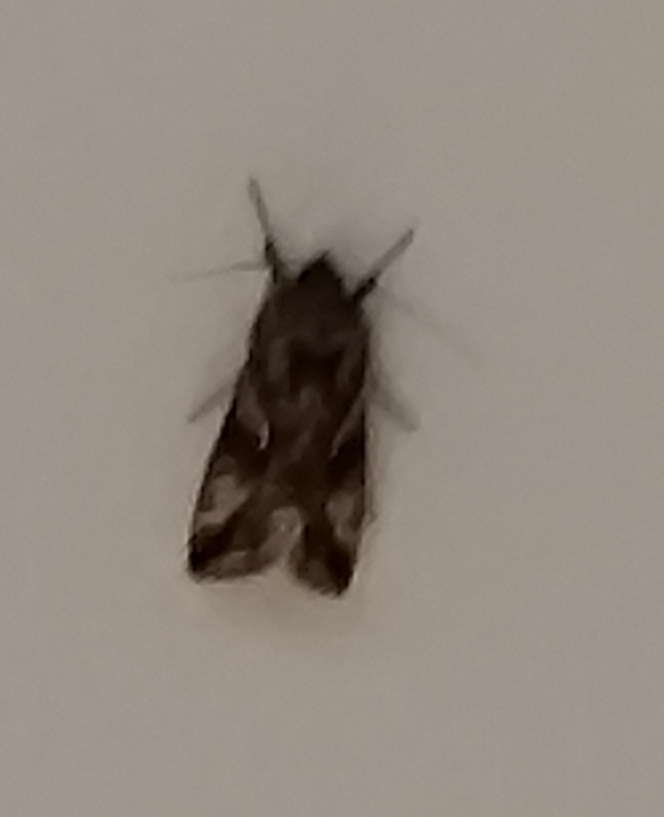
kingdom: Animalia
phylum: Arthropoda
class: Insecta
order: Lepidoptera
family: Noctuidae
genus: Autographa
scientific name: Autographa gamma
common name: Silver y
